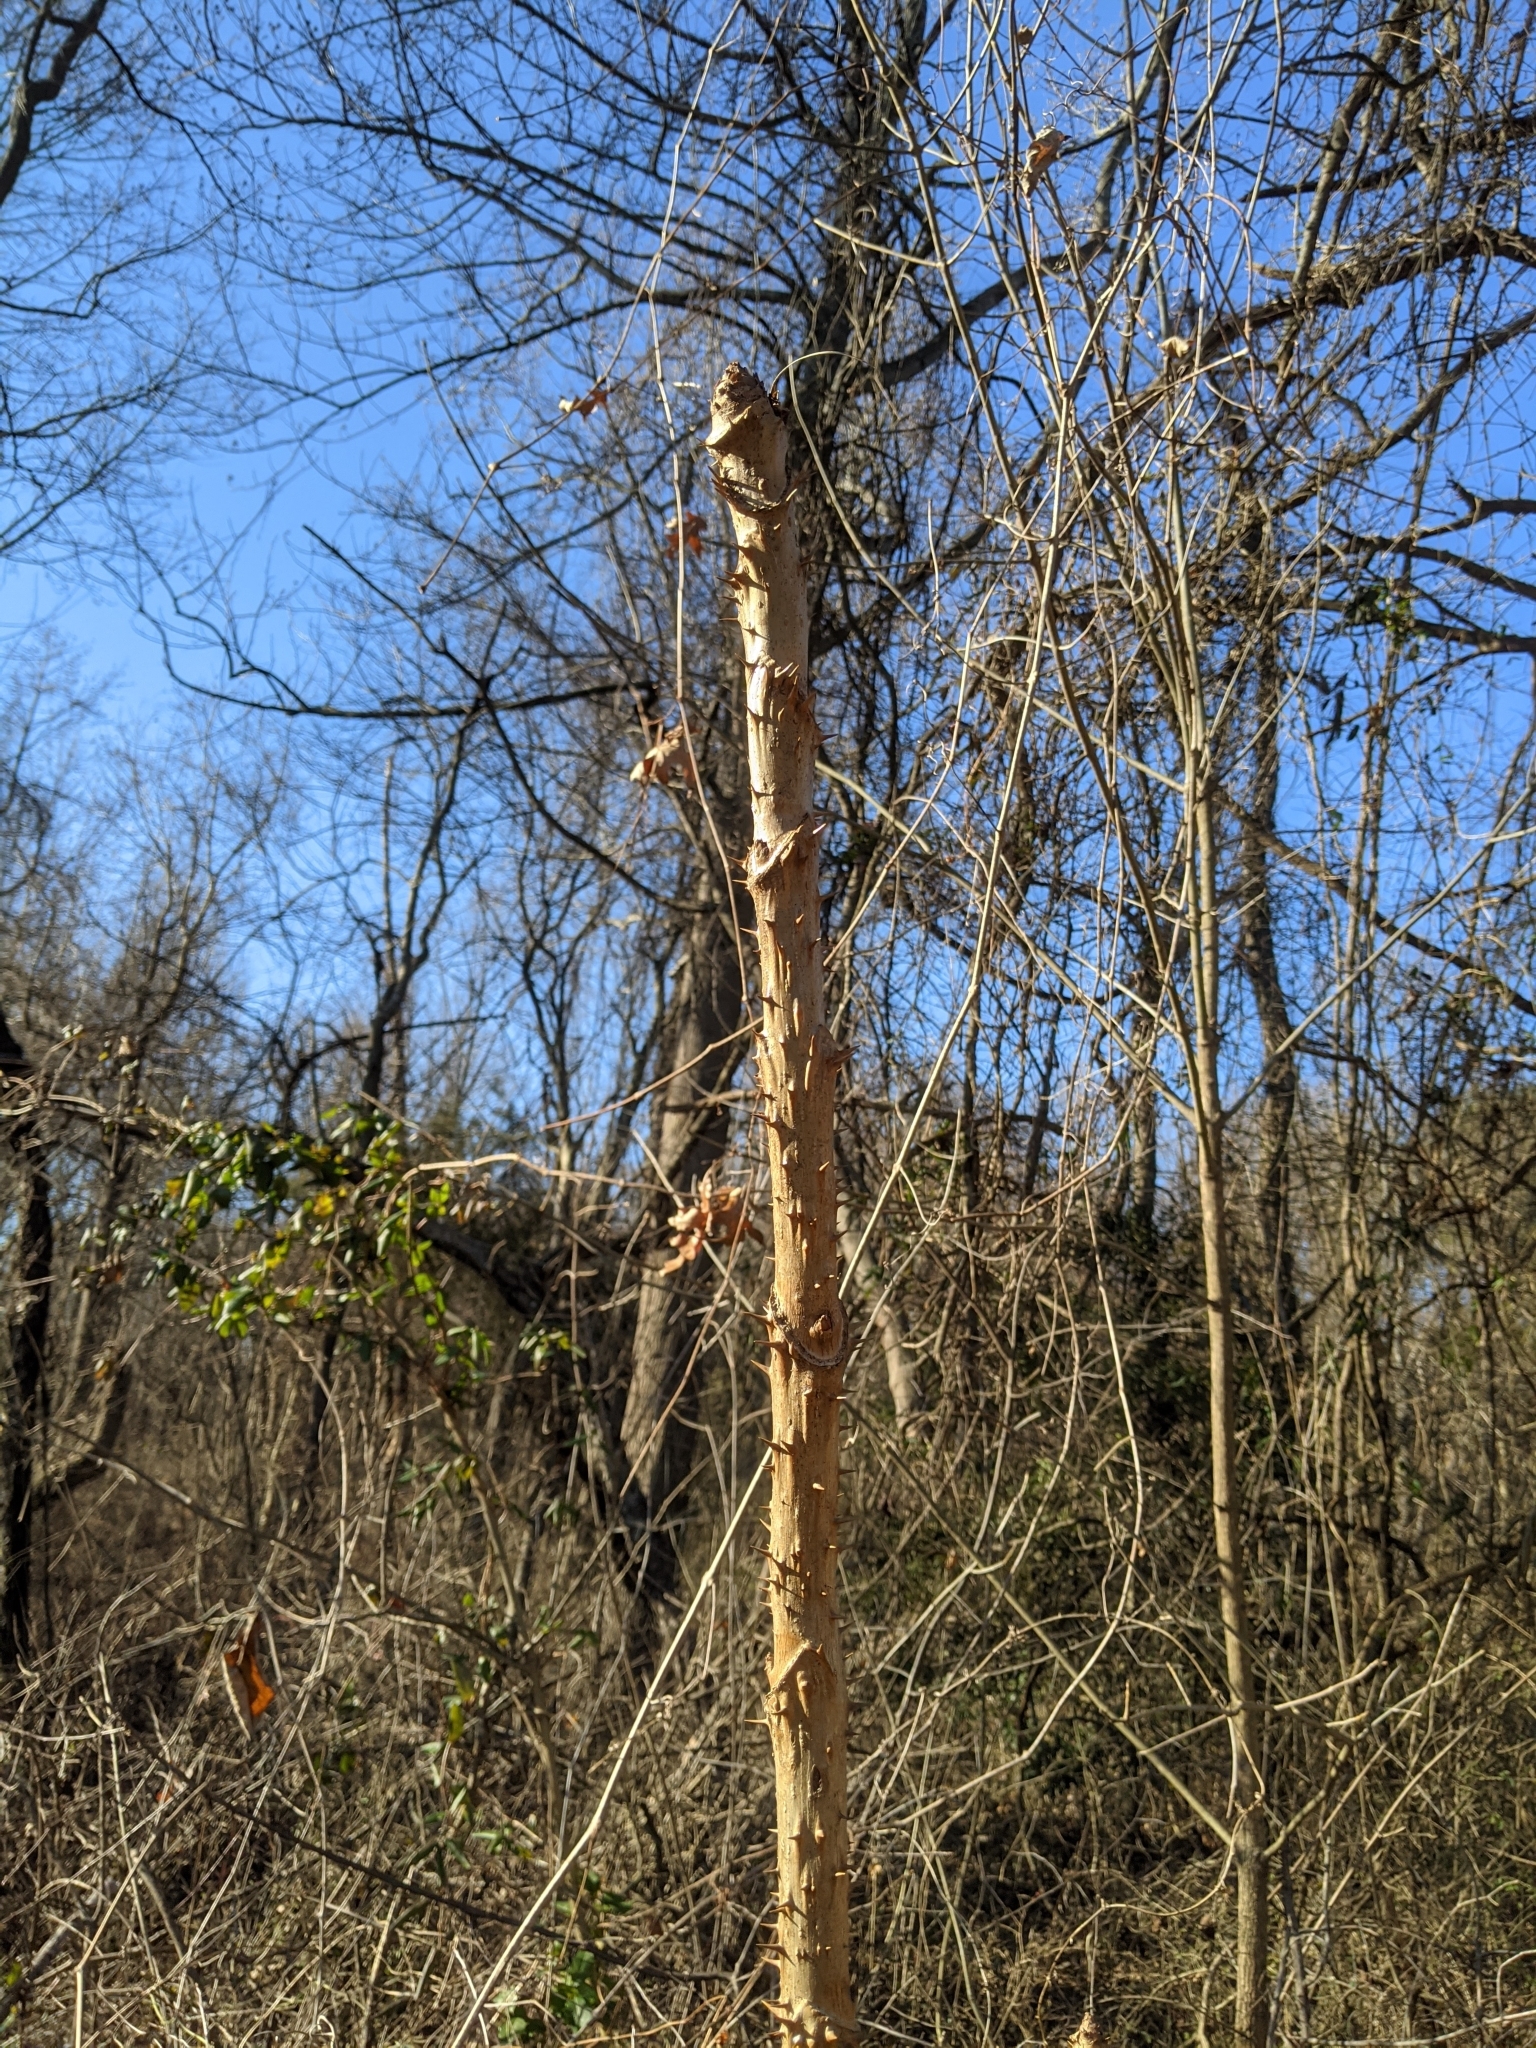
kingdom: Plantae
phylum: Tracheophyta
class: Magnoliopsida
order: Apiales
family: Araliaceae
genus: Aralia
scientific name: Aralia spinosa
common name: Hercules'-club
